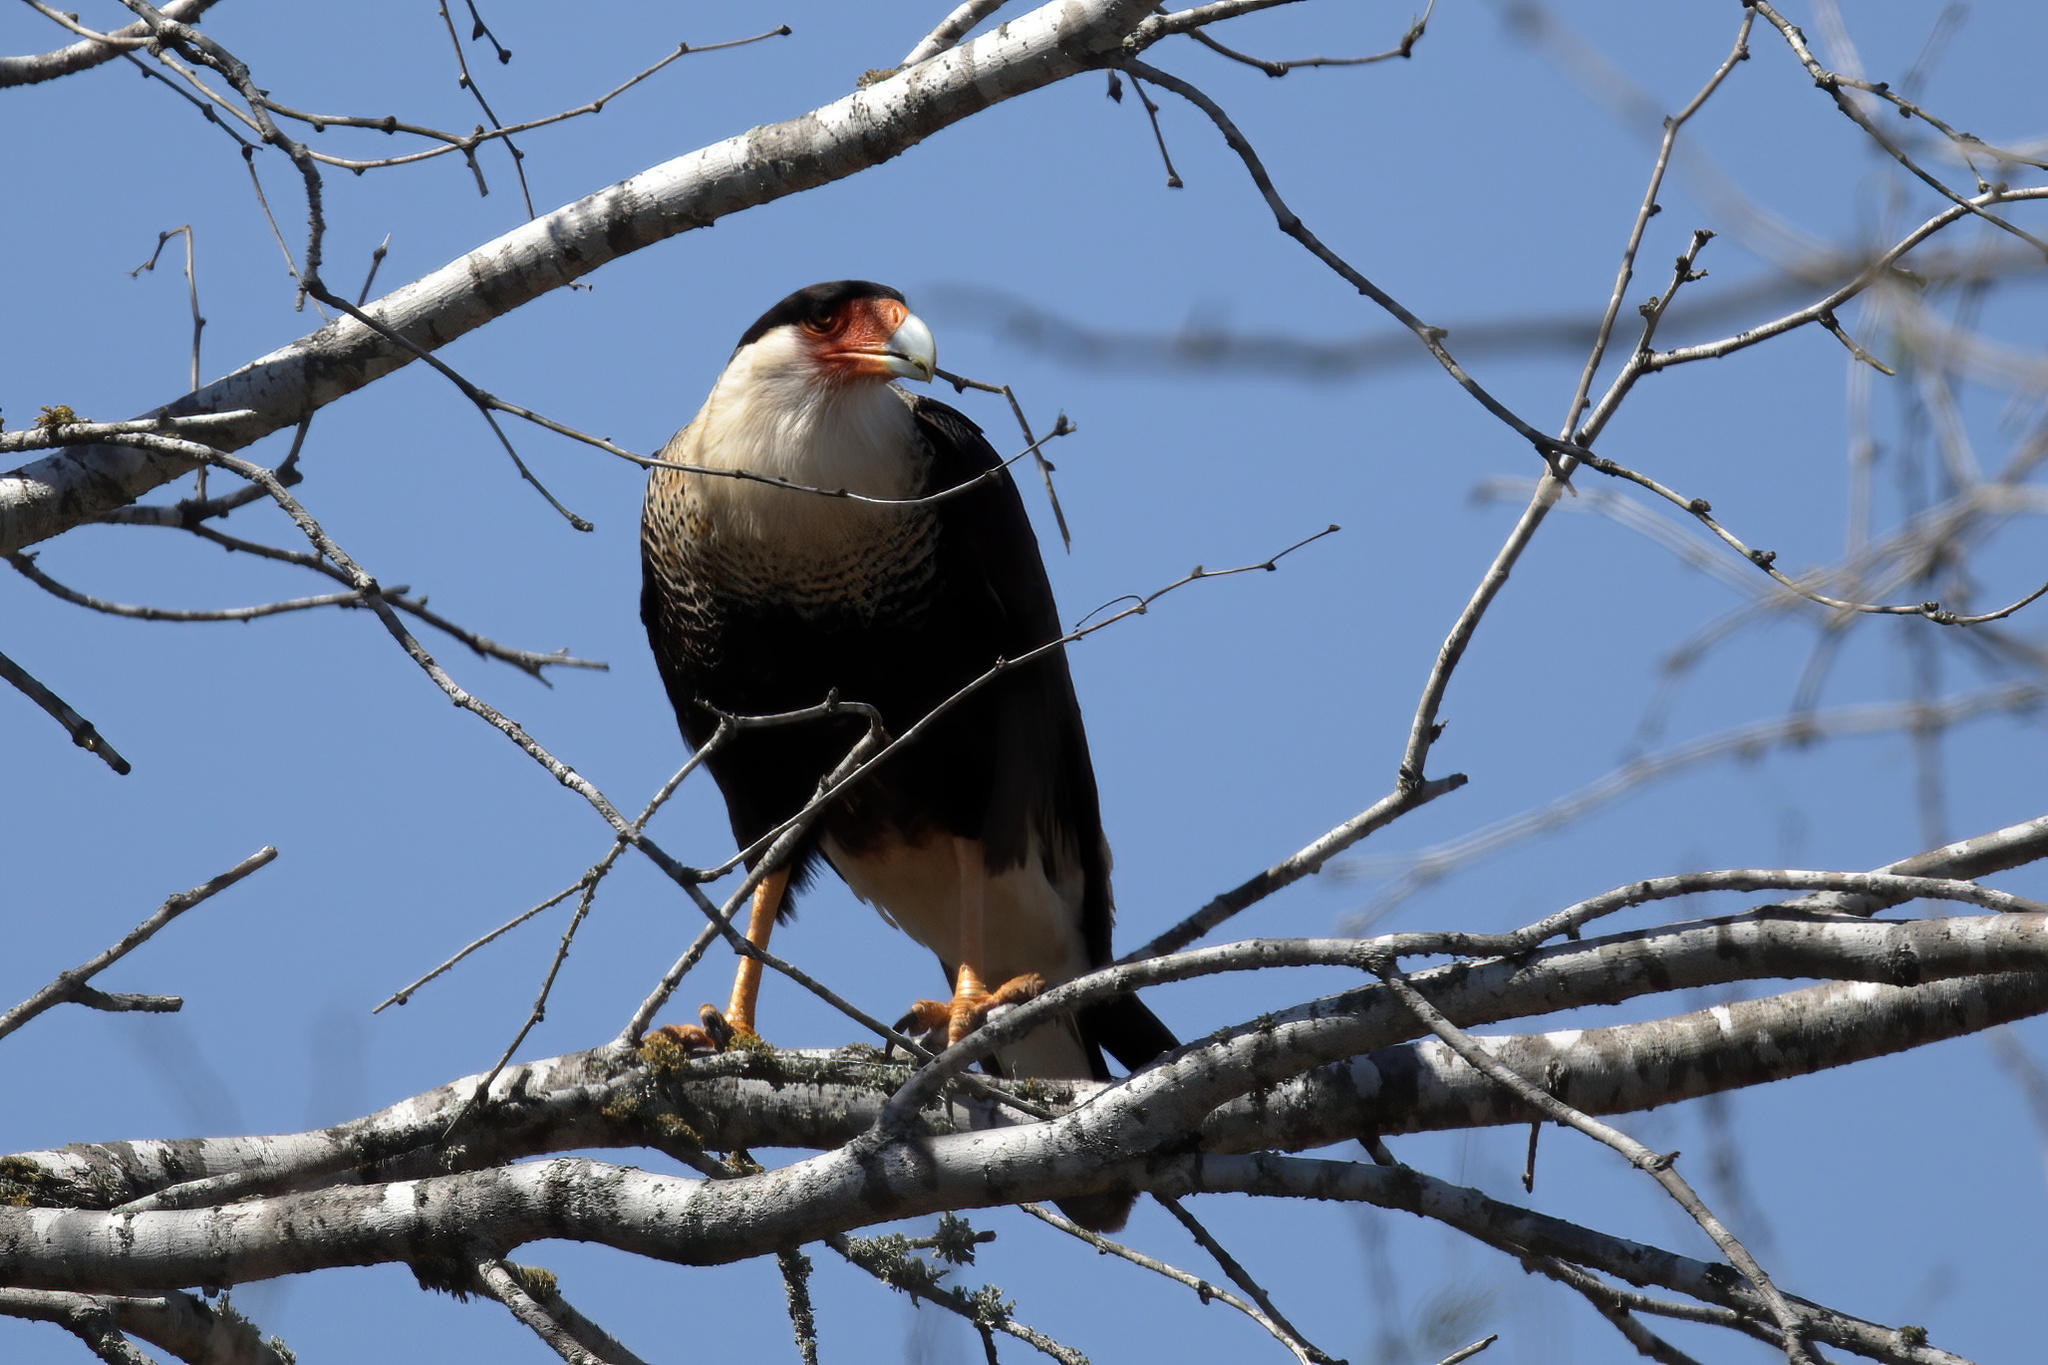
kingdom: Animalia
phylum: Chordata
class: Aves
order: Falconiformes
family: Falconidae
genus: Caracara
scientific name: Caracara plancus
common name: Southern caracara
